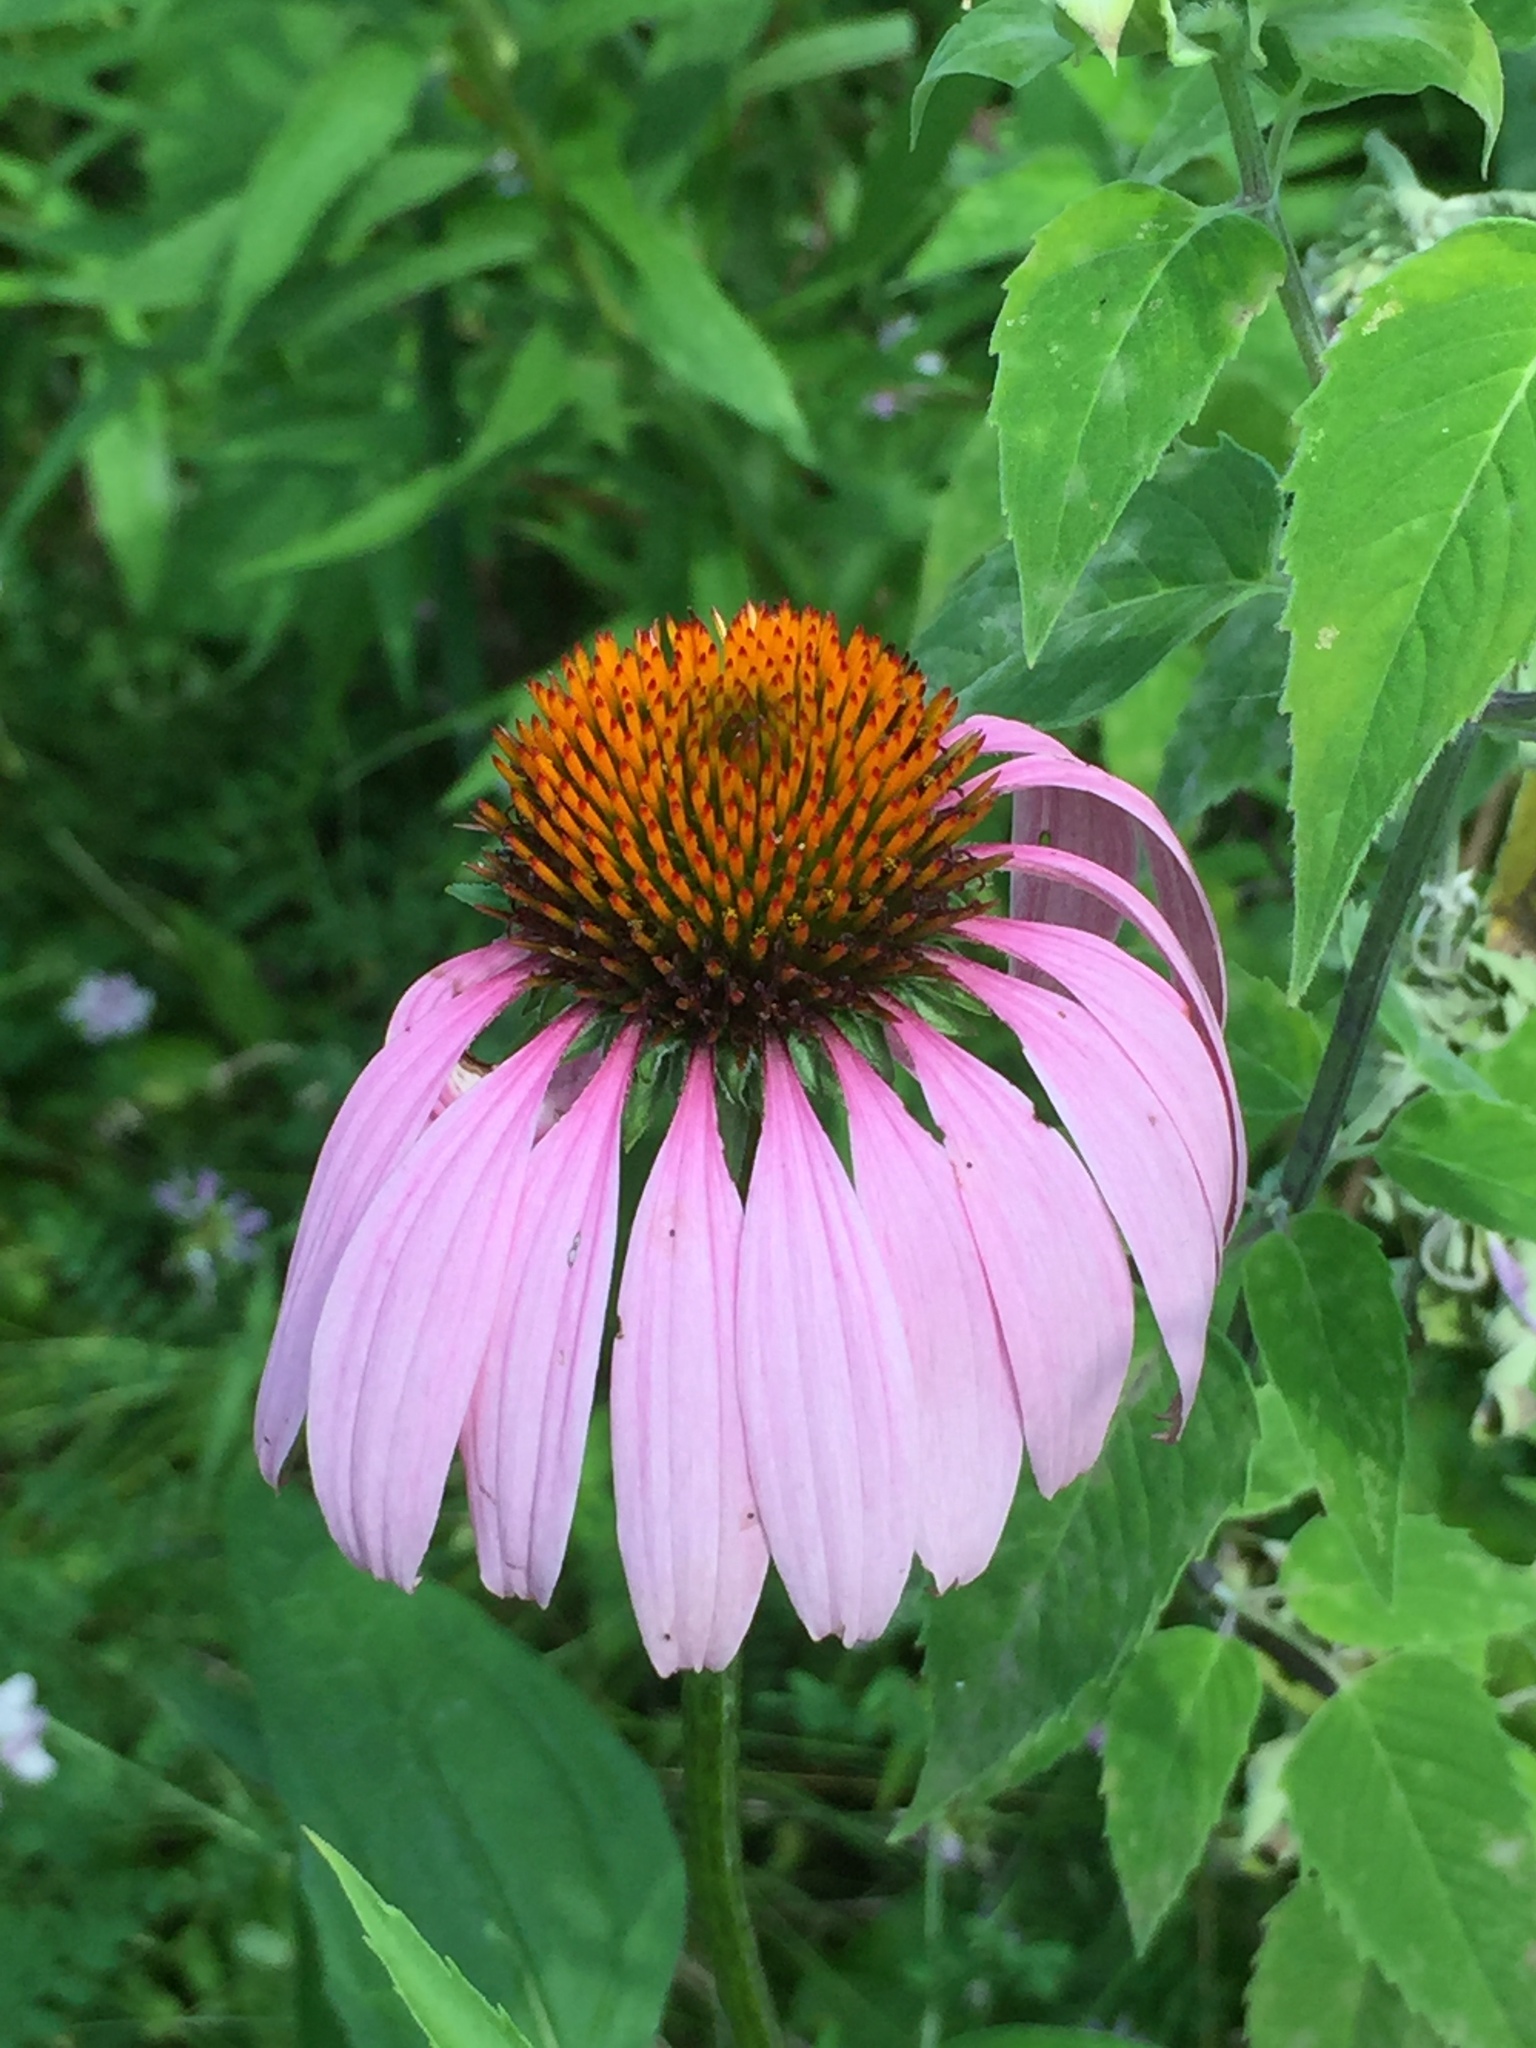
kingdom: Plantae
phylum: Tracheophyta
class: Magnoliopsida
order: Asterales
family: Asteraceae
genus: Echinacea
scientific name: Echinacea purpurea
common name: Broad-leaved purple coneflower
